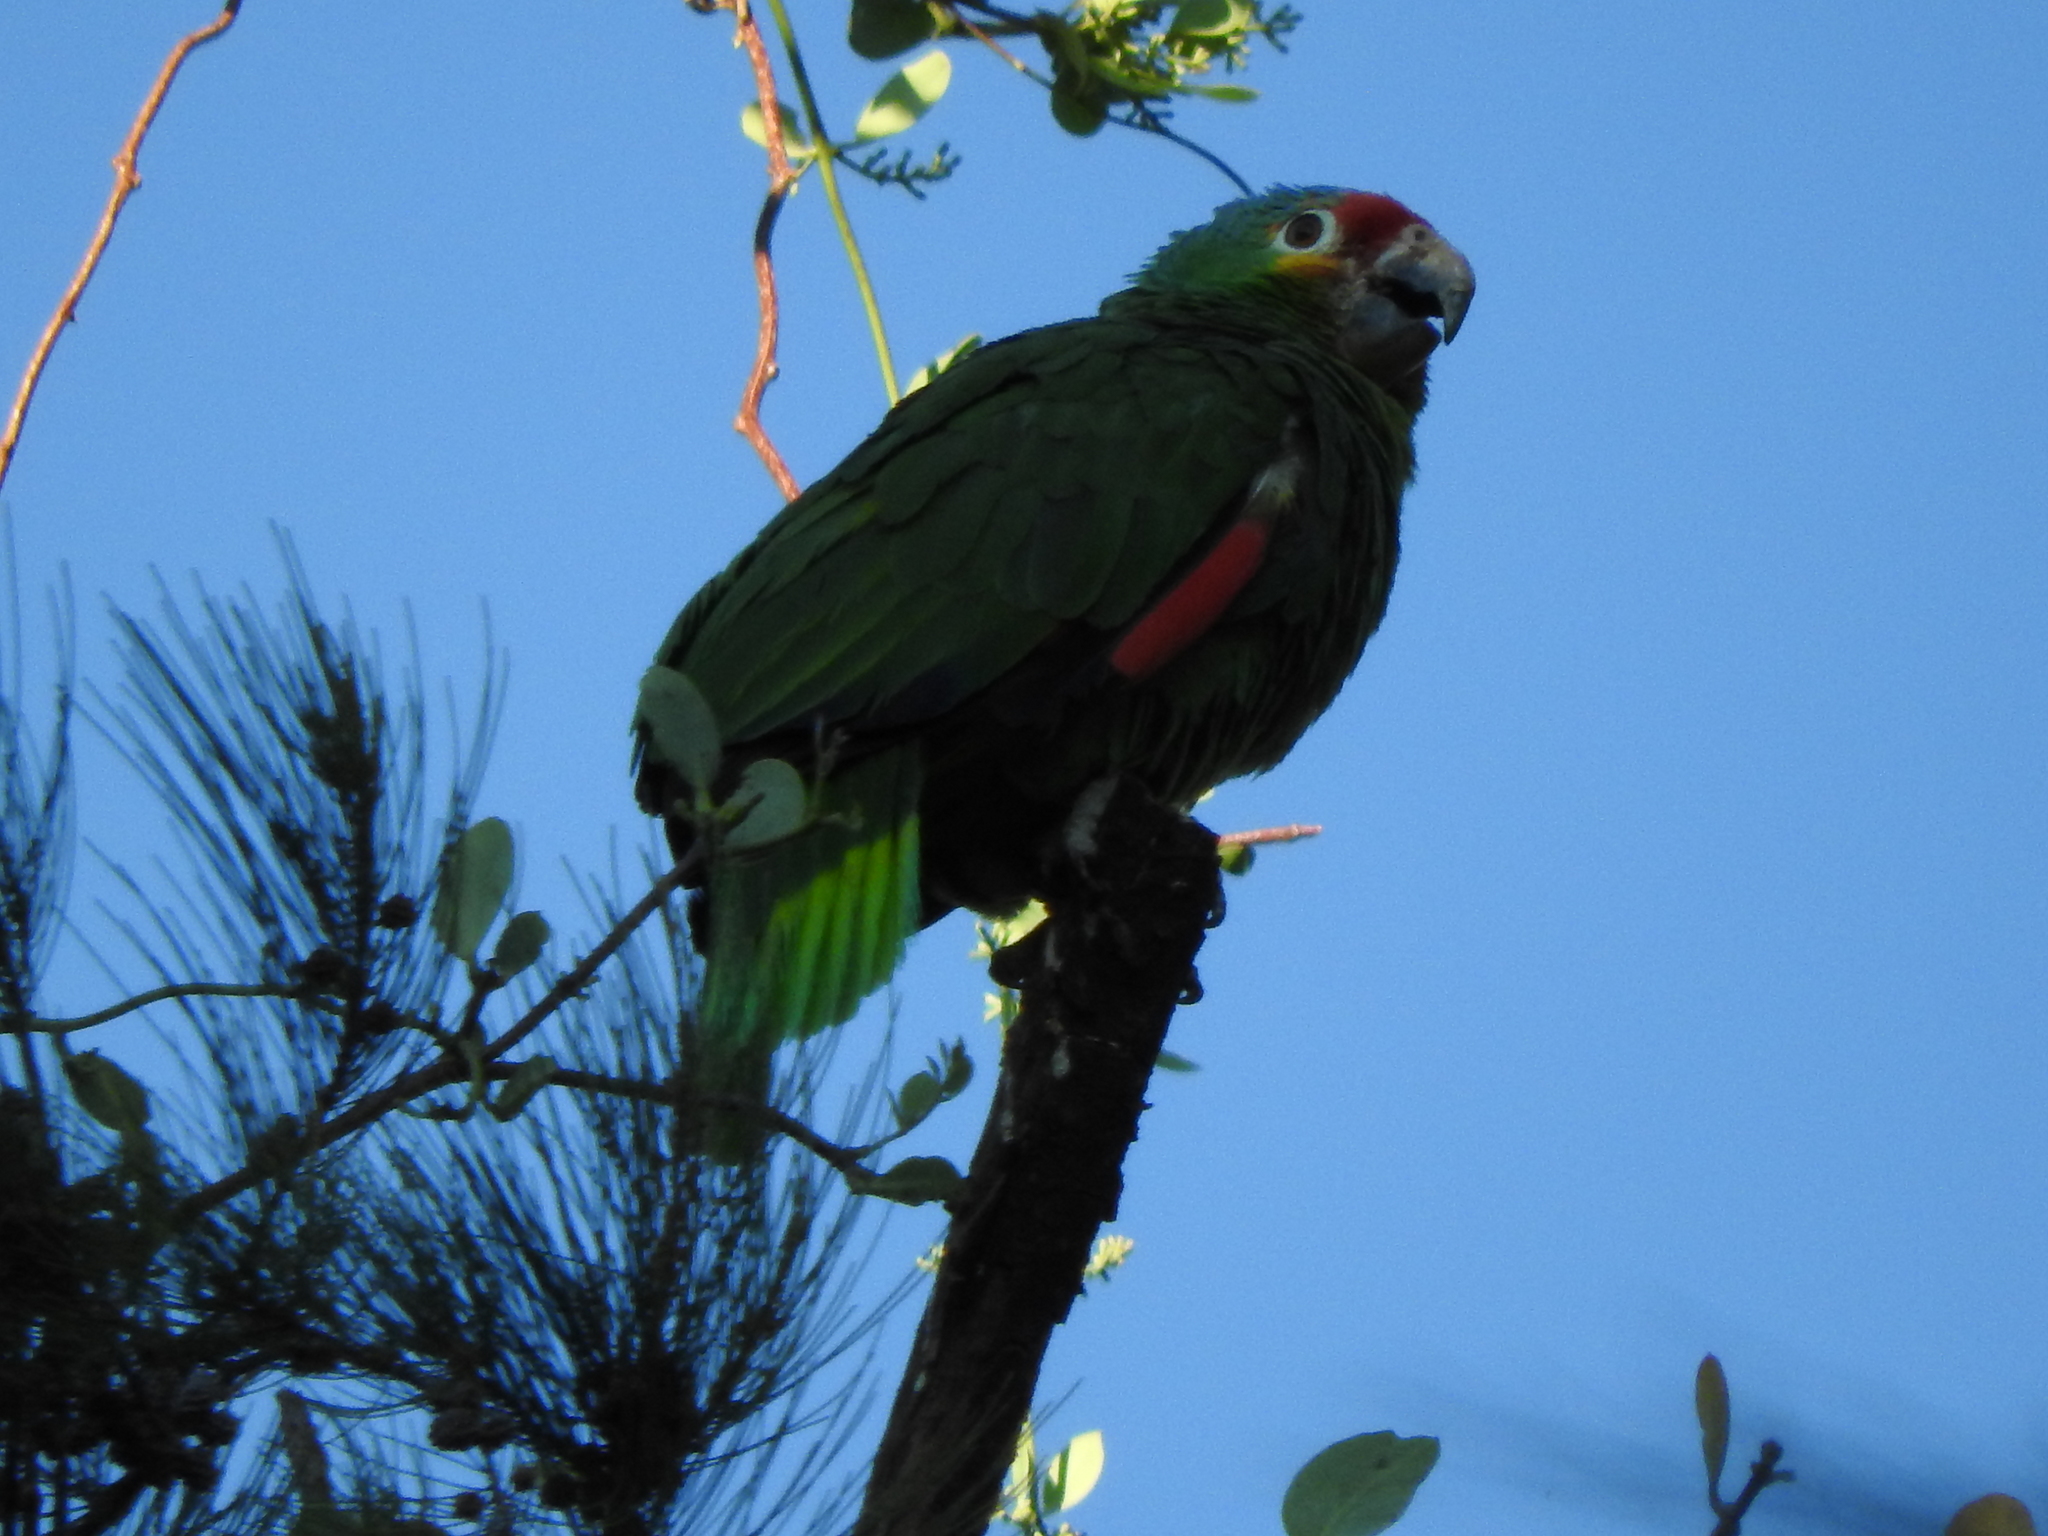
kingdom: Animalia
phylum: Chordata
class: Aves
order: Psittaciformes
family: Psittacidae
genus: Amazona
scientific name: Amazona autumnalis
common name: Red-lored amazon
